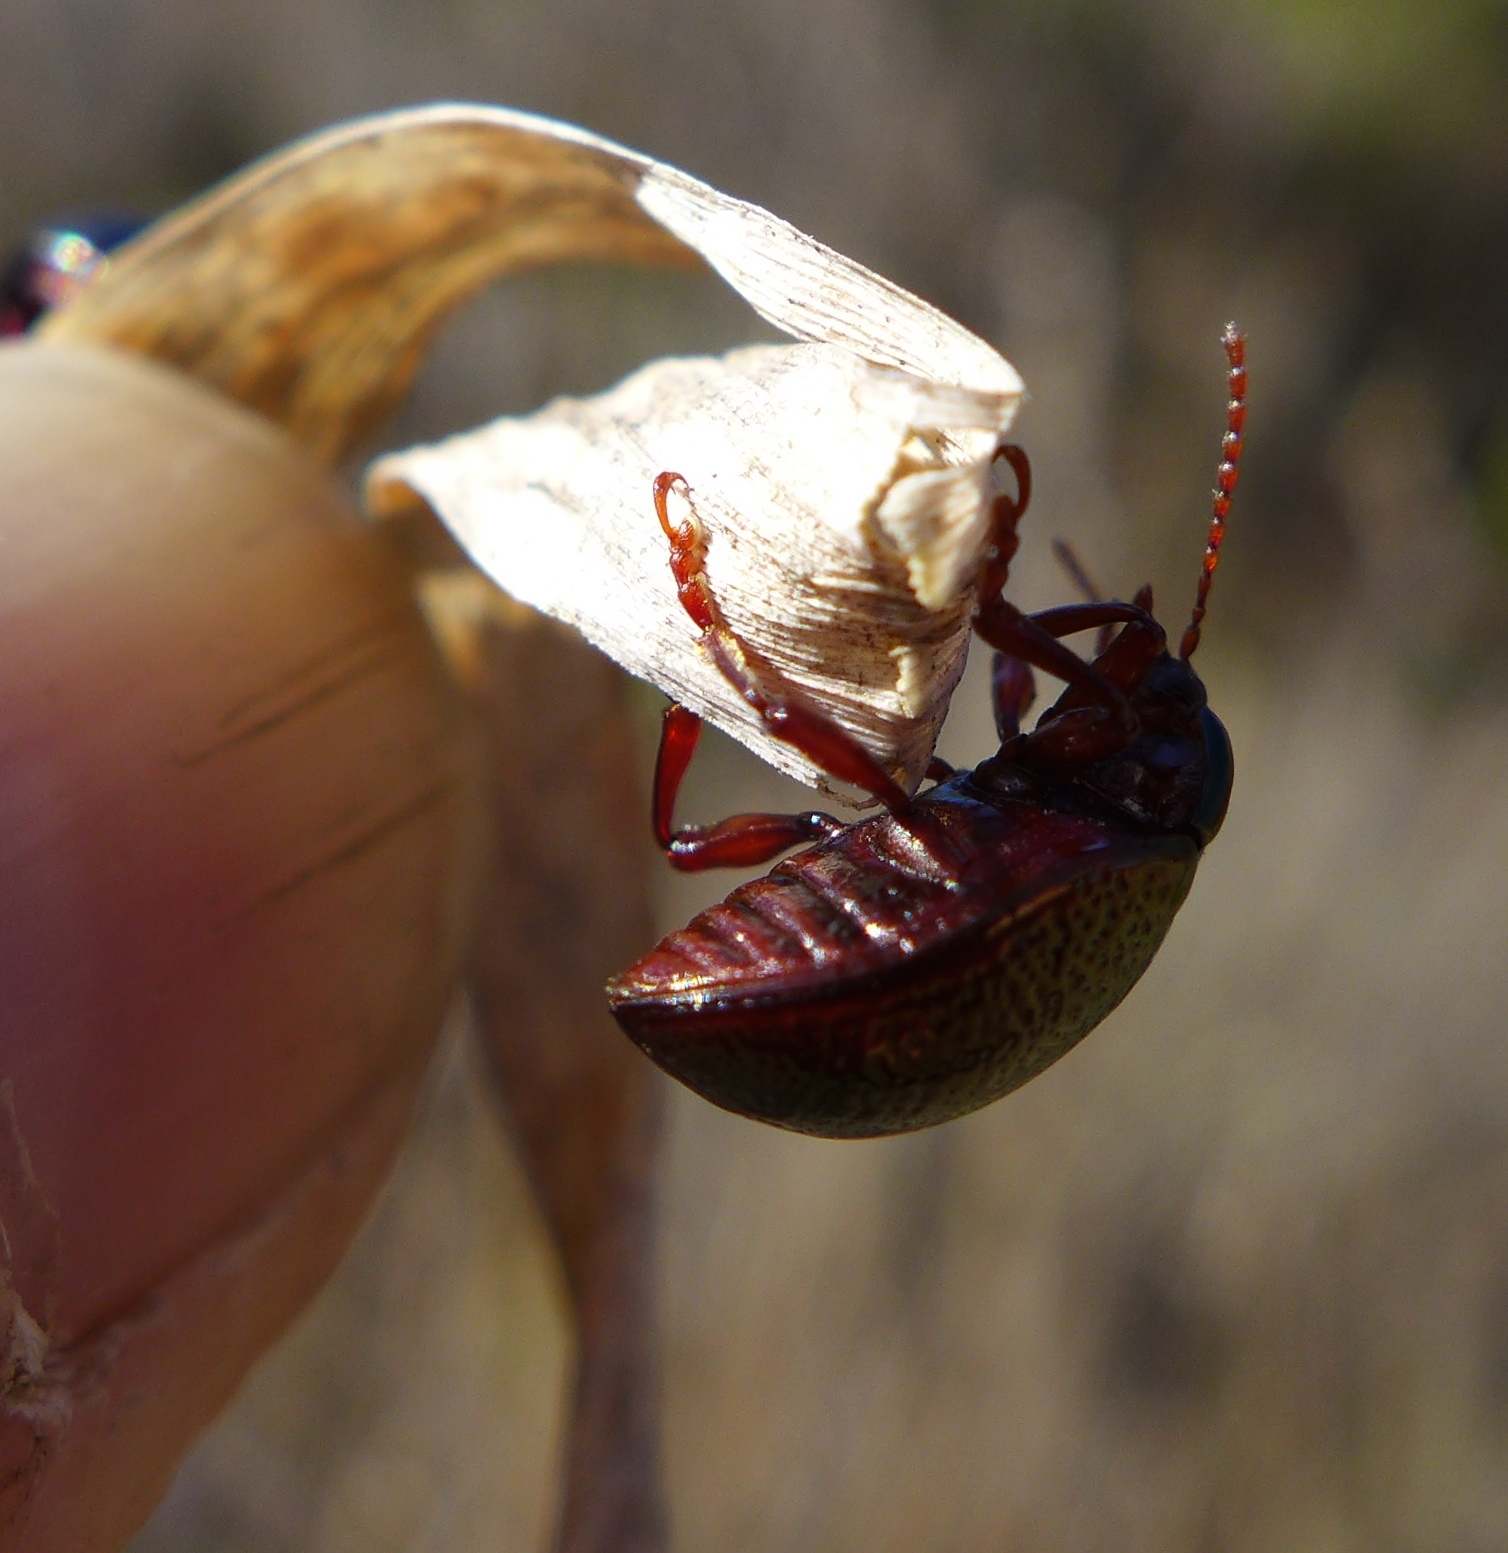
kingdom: Animalia
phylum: Arthropoda
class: Insecta
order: Coleoptera
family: Chrysomelidae
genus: Chrysolina
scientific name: Chrysolina bankii
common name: Leaf beetle
